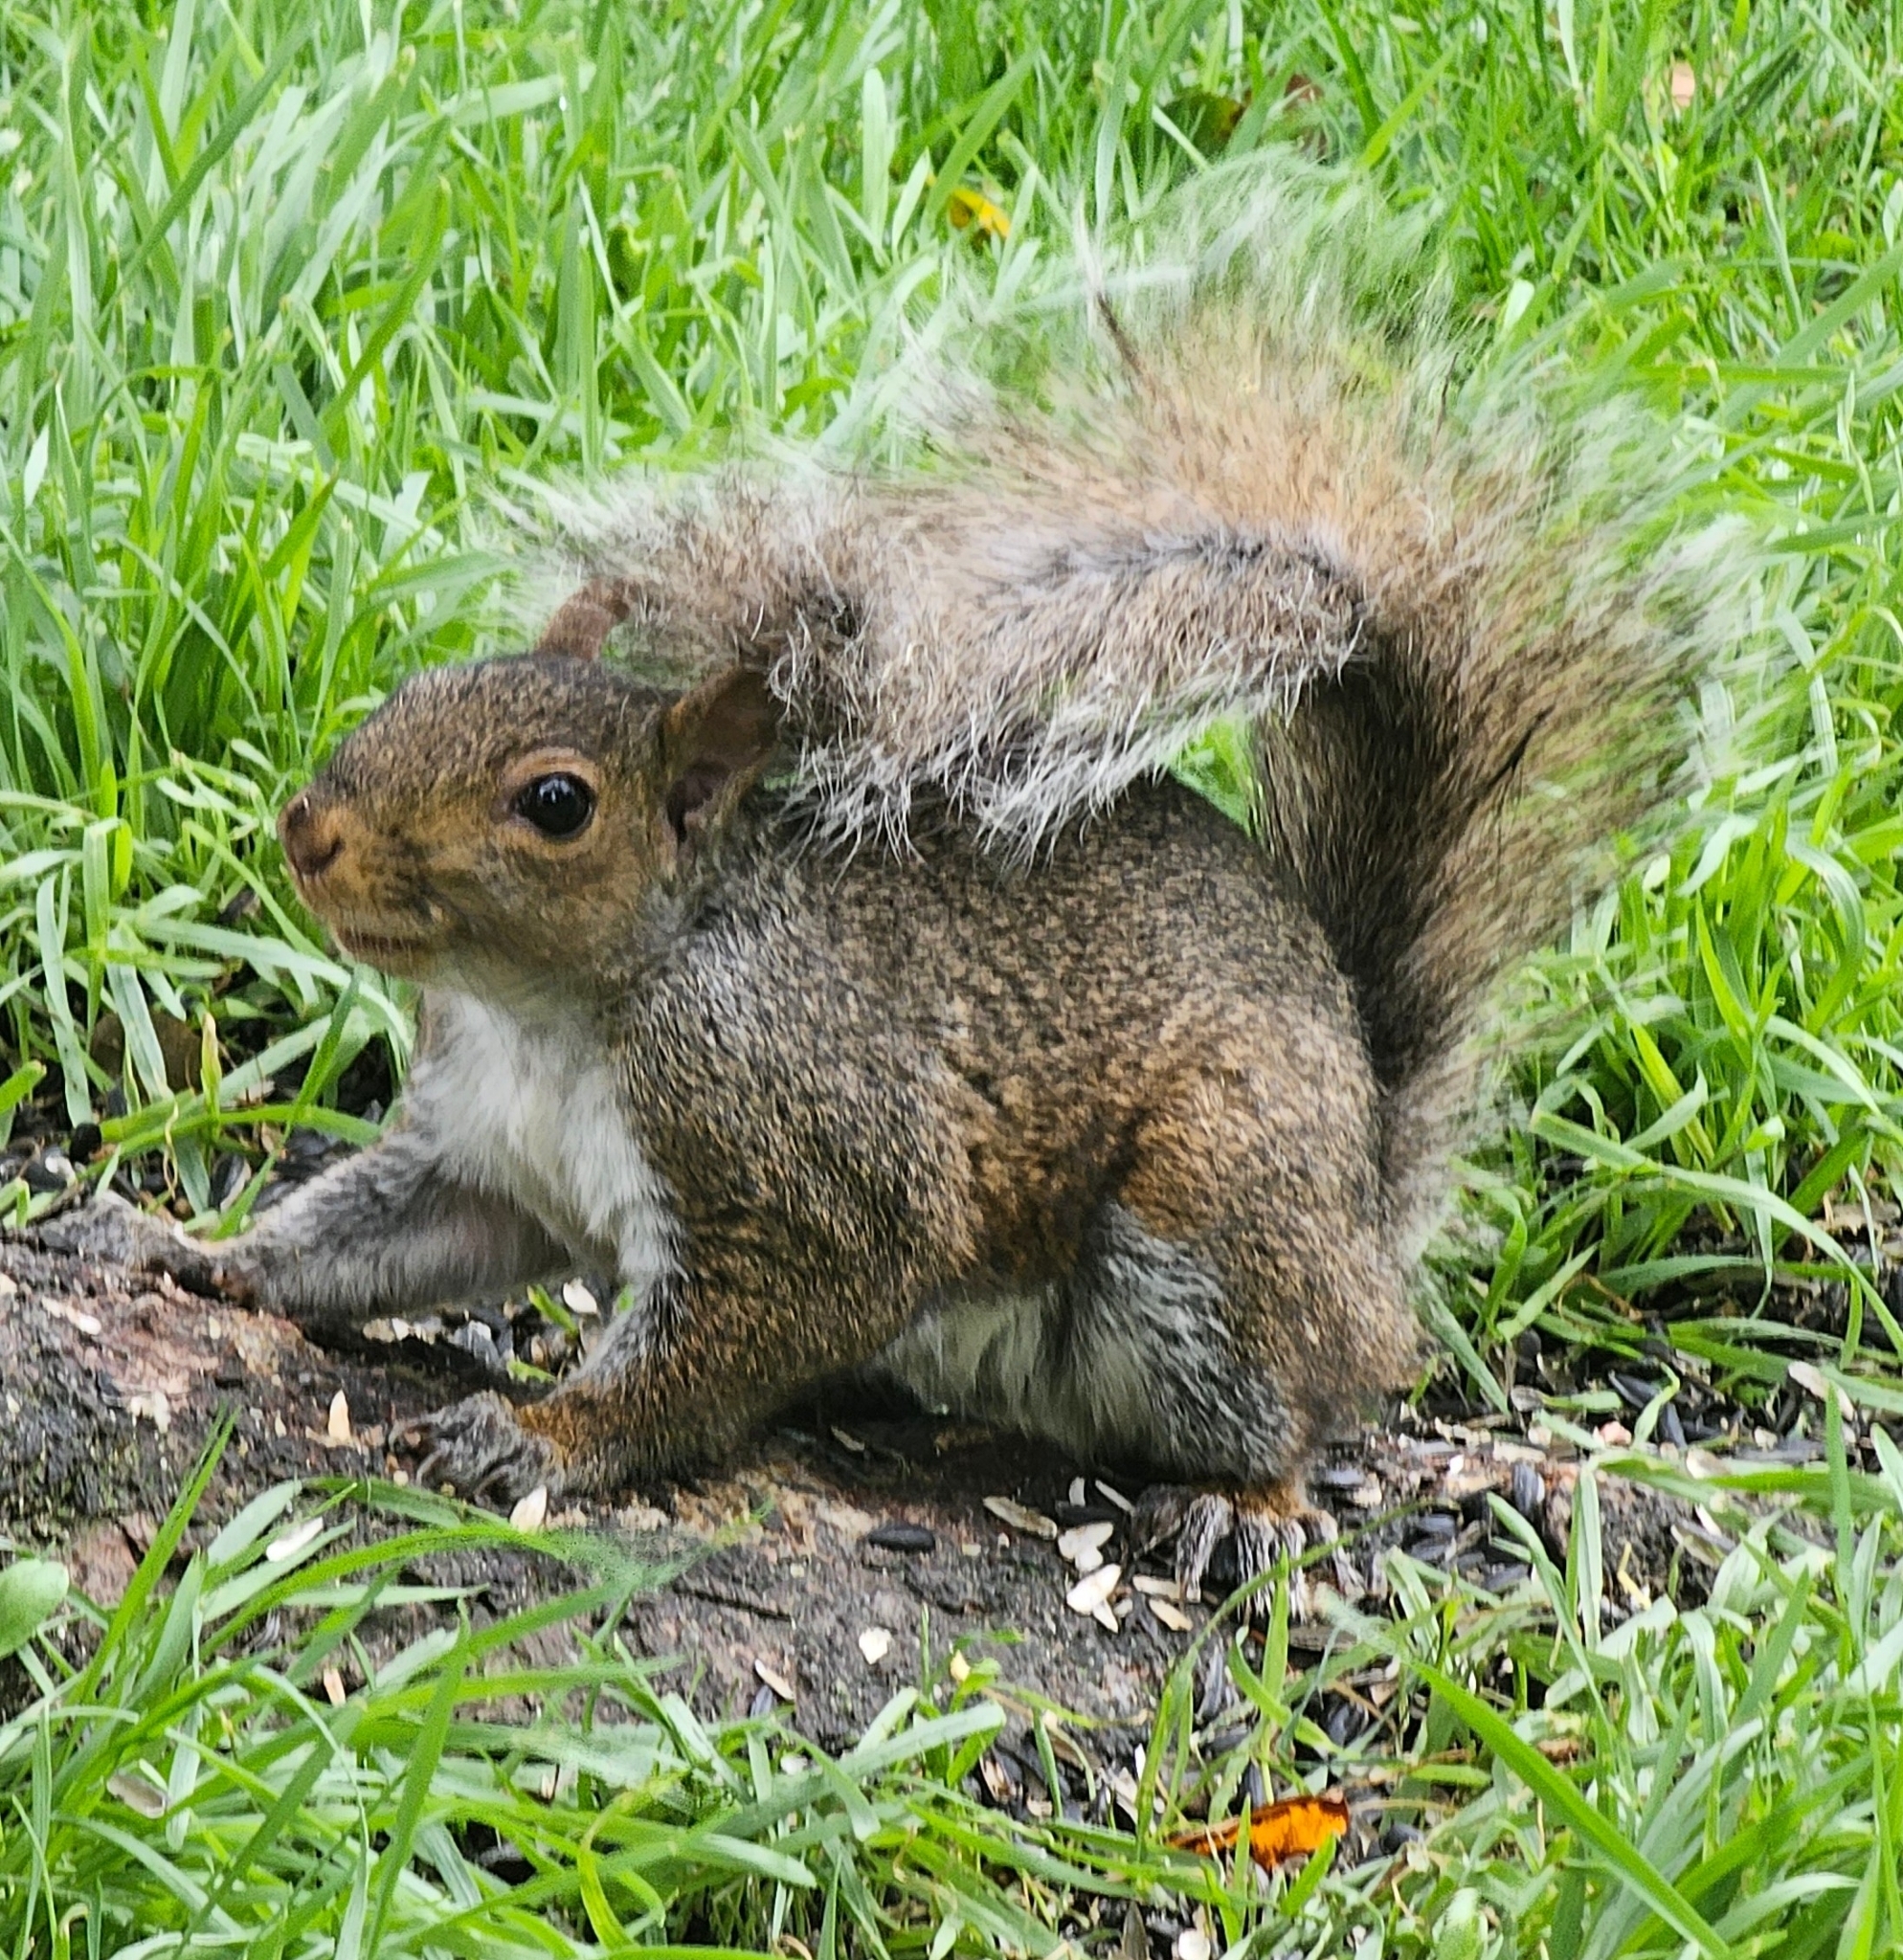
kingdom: Animalia
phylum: Chordata
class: Mammalia
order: Rodentia
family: Sciuridae
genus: Sciurus
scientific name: Sciurus carolinensis
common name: Eastern gray squirrel
